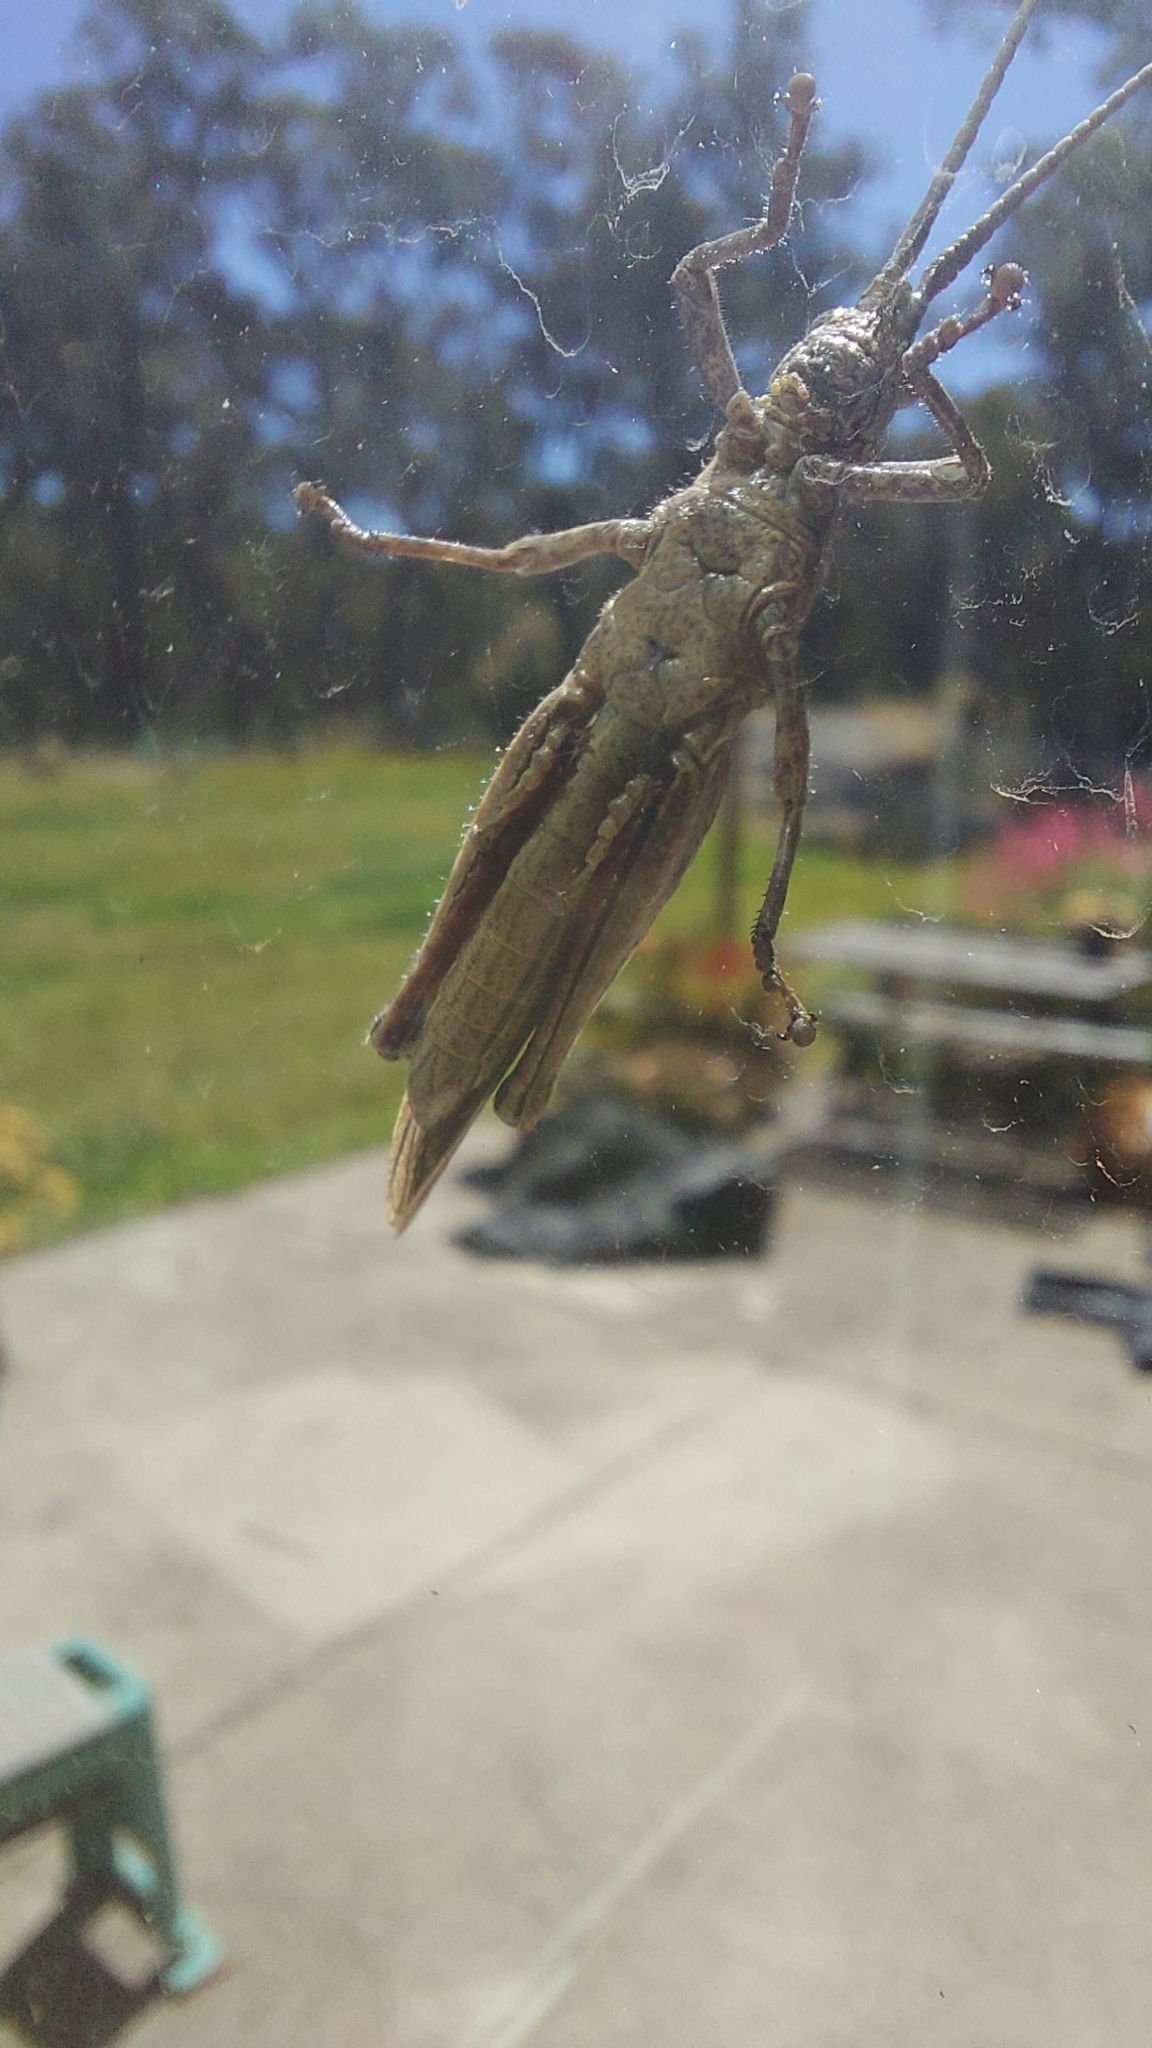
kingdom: Animalia
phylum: Arthropoda
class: Insecta
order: Orthoptera
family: Acrididae
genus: Coryphistes
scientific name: Coryphistes ruricola
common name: Bark-mimicking grasshopper
